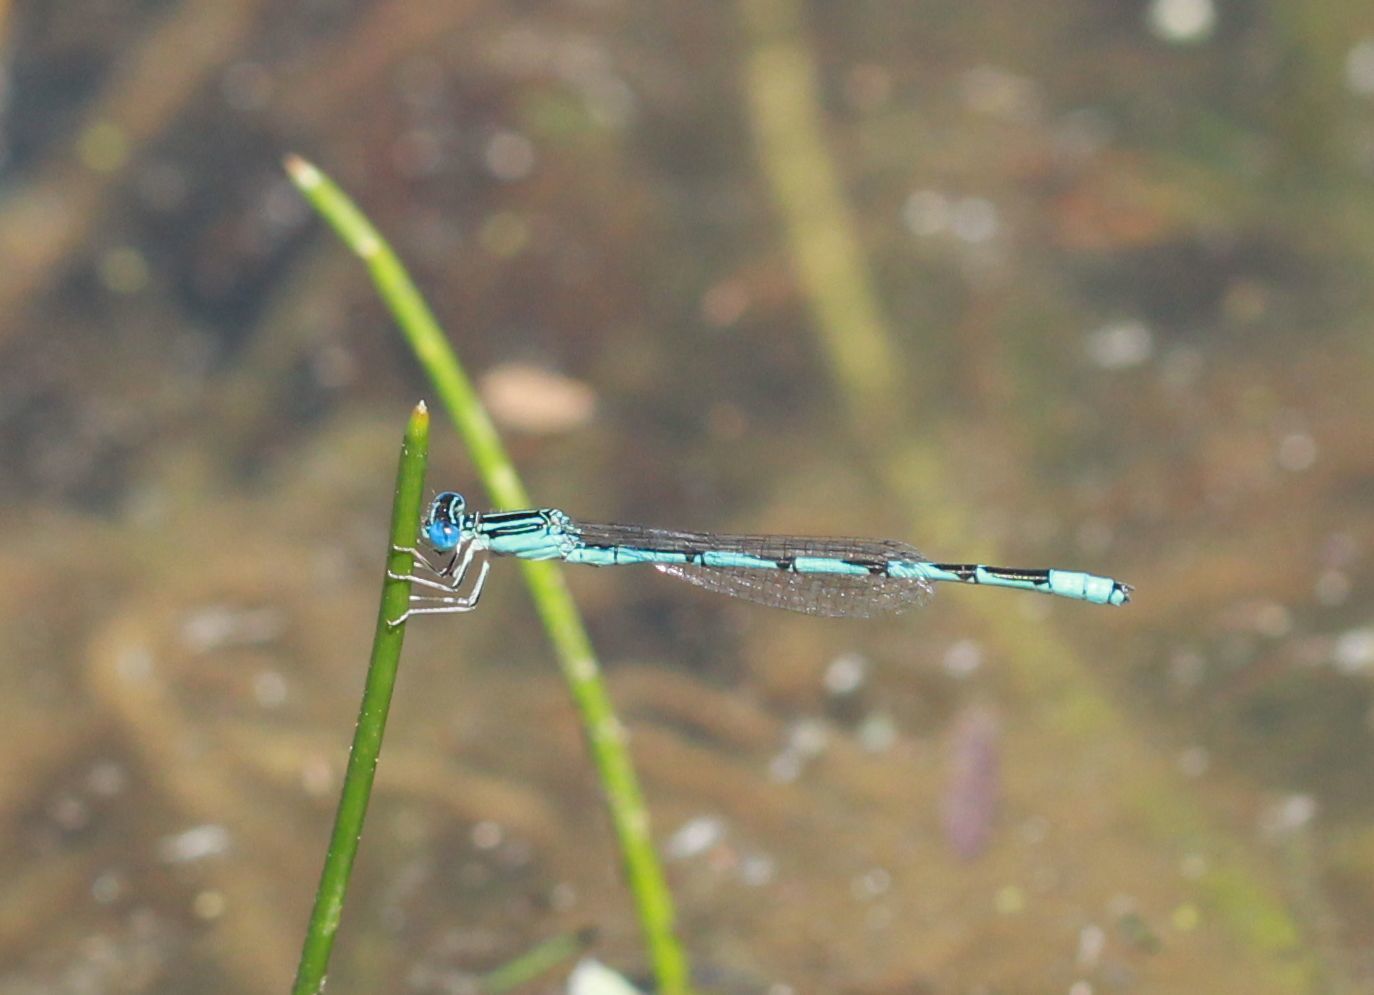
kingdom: Animalia
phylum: Arthropoda
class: Insecta
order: Odonata
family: Coenagrionidae
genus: Enallagma
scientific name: Enallagma basidens
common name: Double-striped bluet
